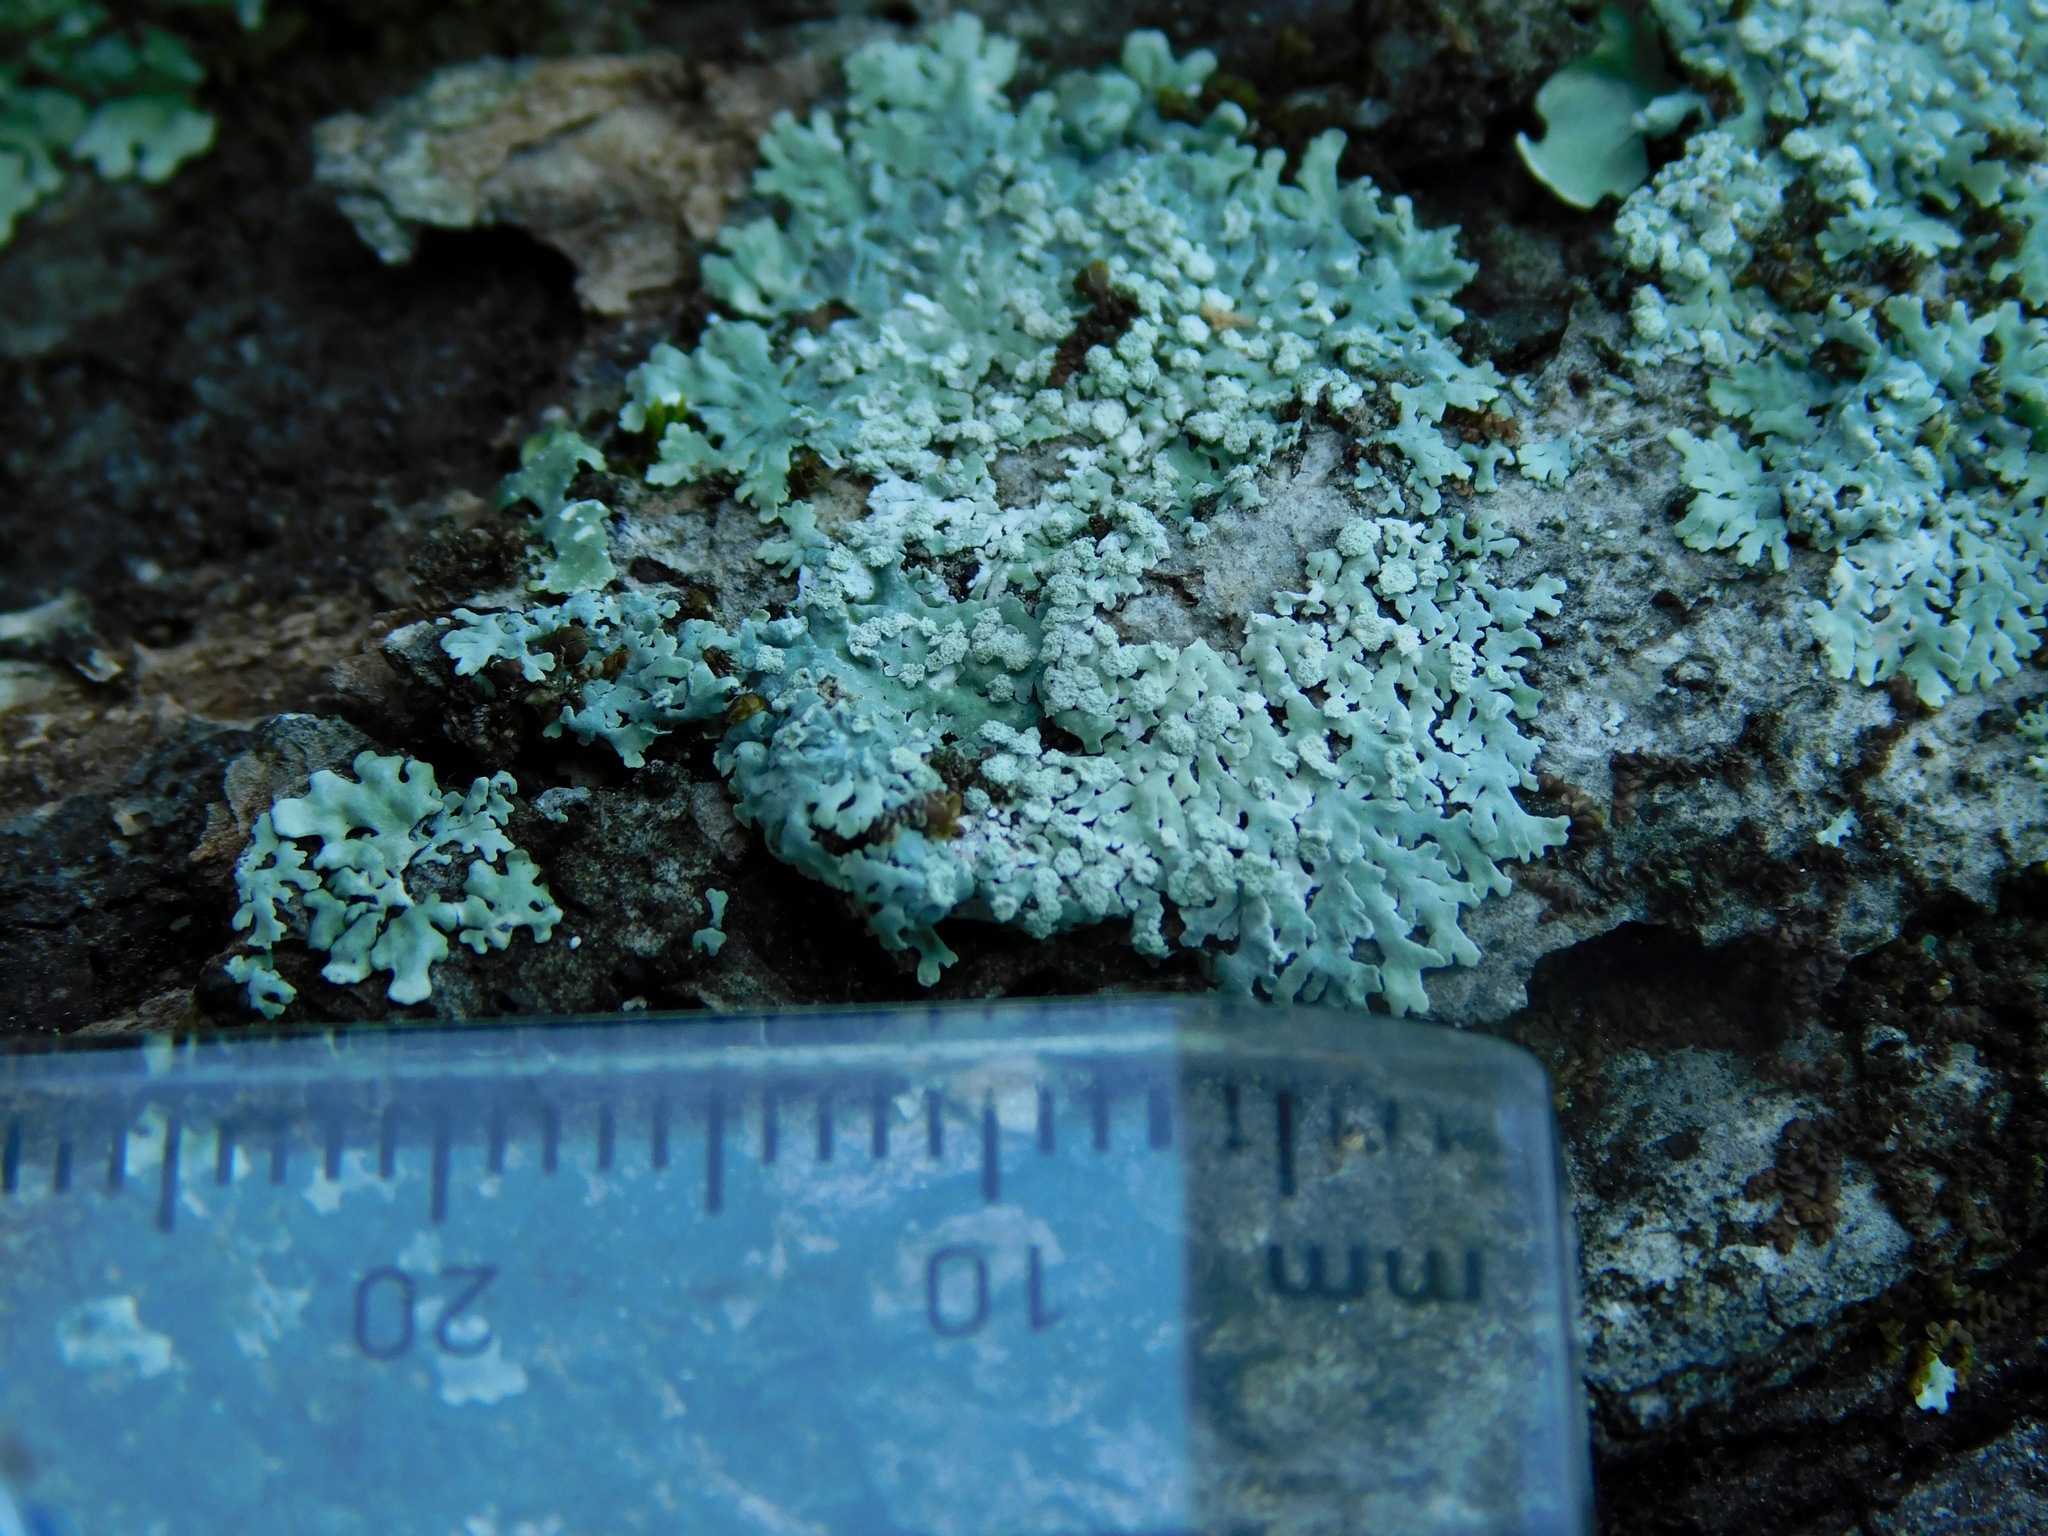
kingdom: Fungi
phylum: Ascomycota
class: Lecanoromycetes
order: Caliciales
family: Caliciaceae
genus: Pyxine
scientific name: Pyxine subcinerea
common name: Mustard lichen
